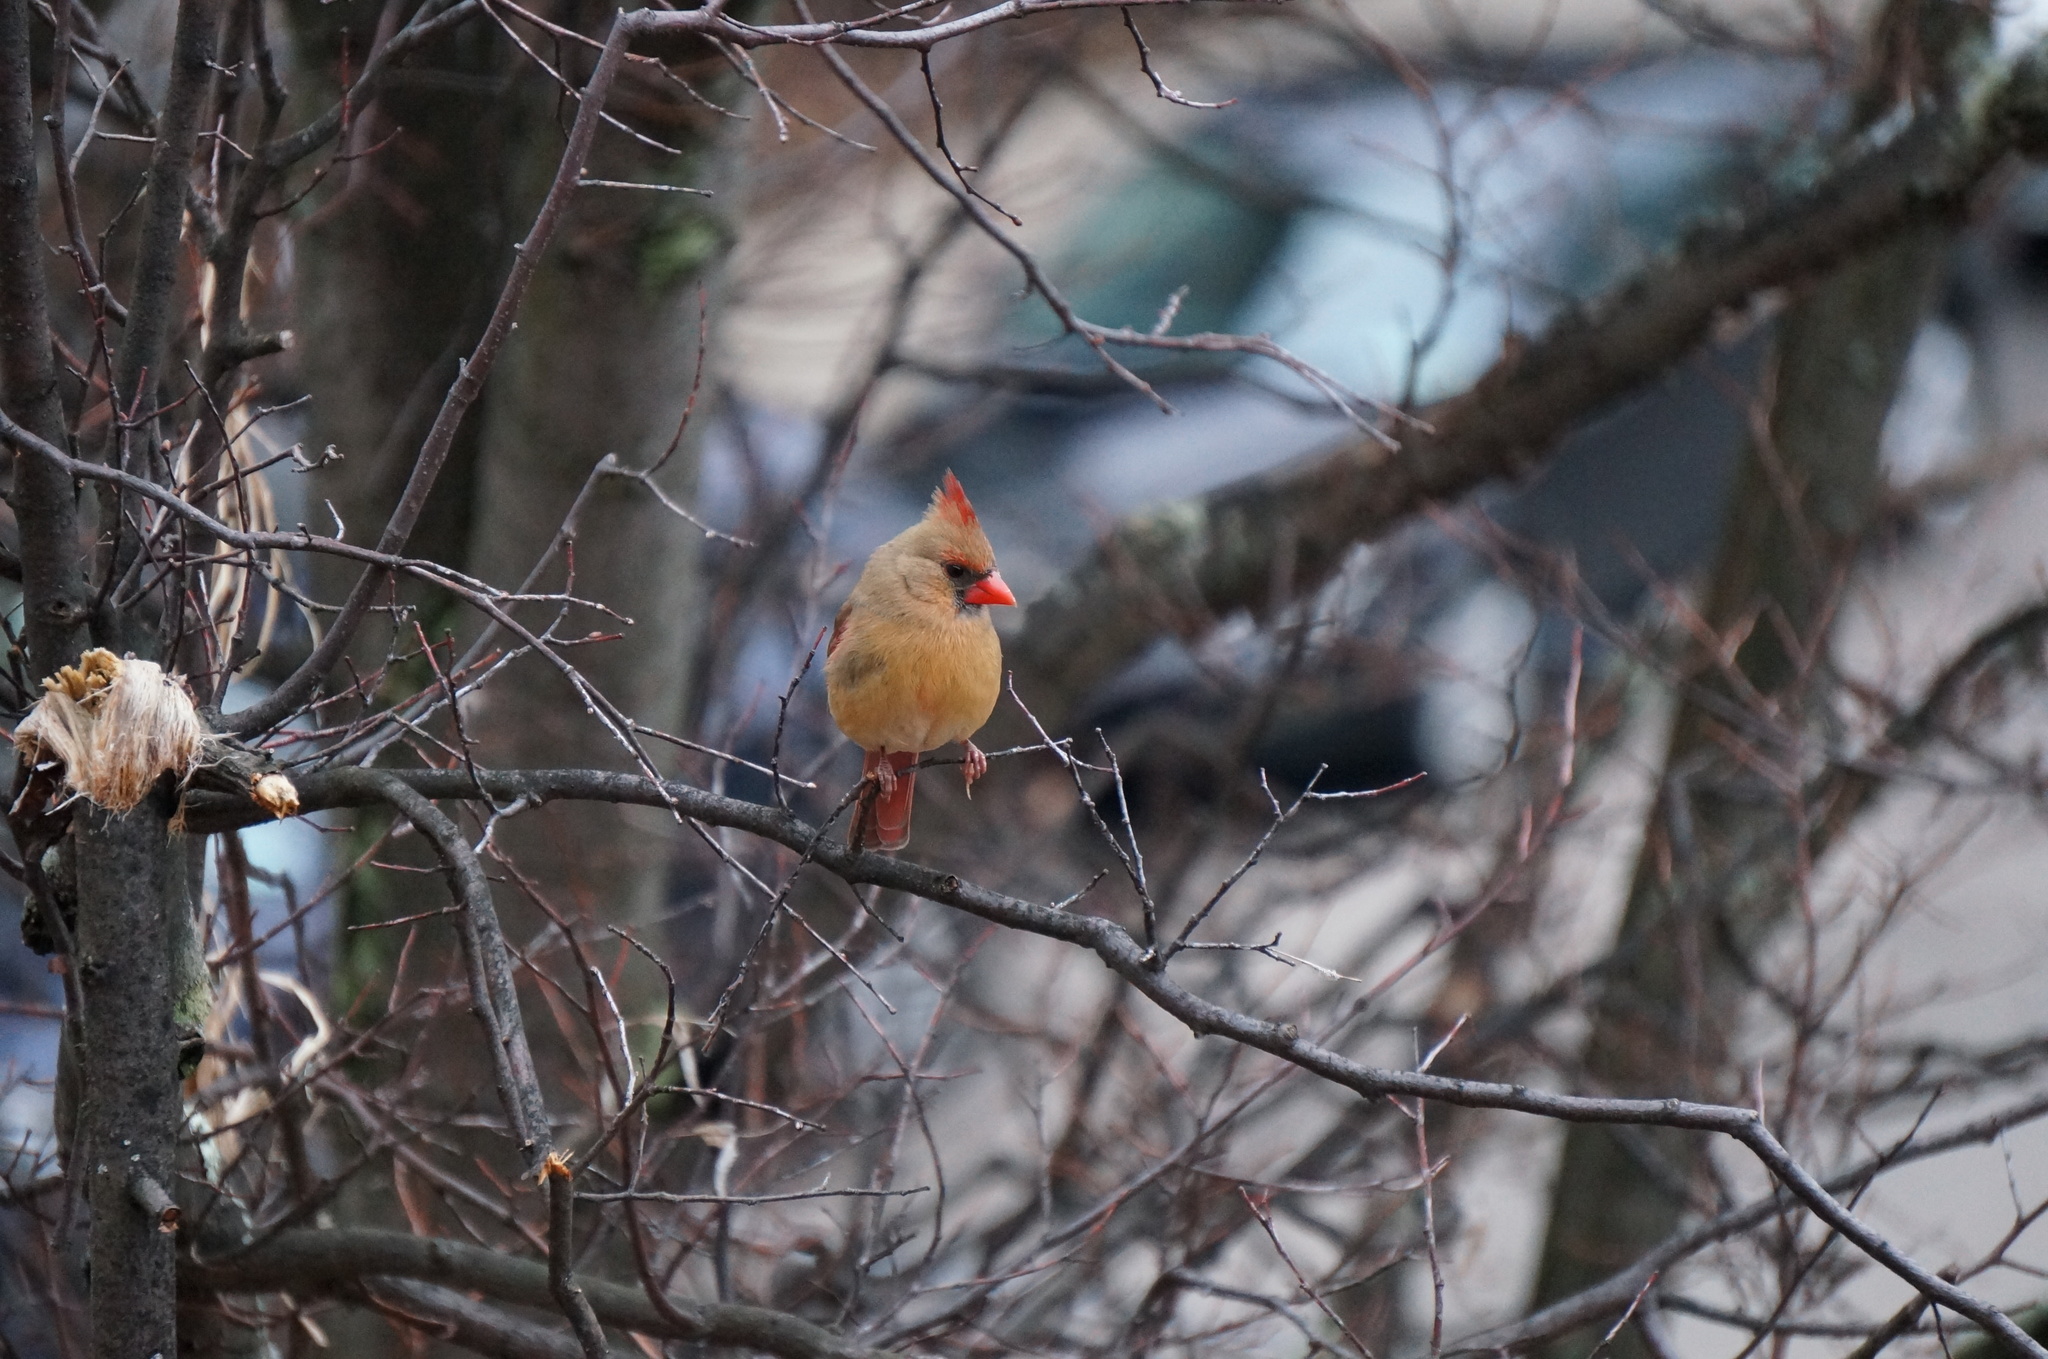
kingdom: Animalia
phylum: Chordata
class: Aves
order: Passeriformes
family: Cardinalidae
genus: Cardinalis
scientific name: Cardinalis cardinalis
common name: Northern cardinal
